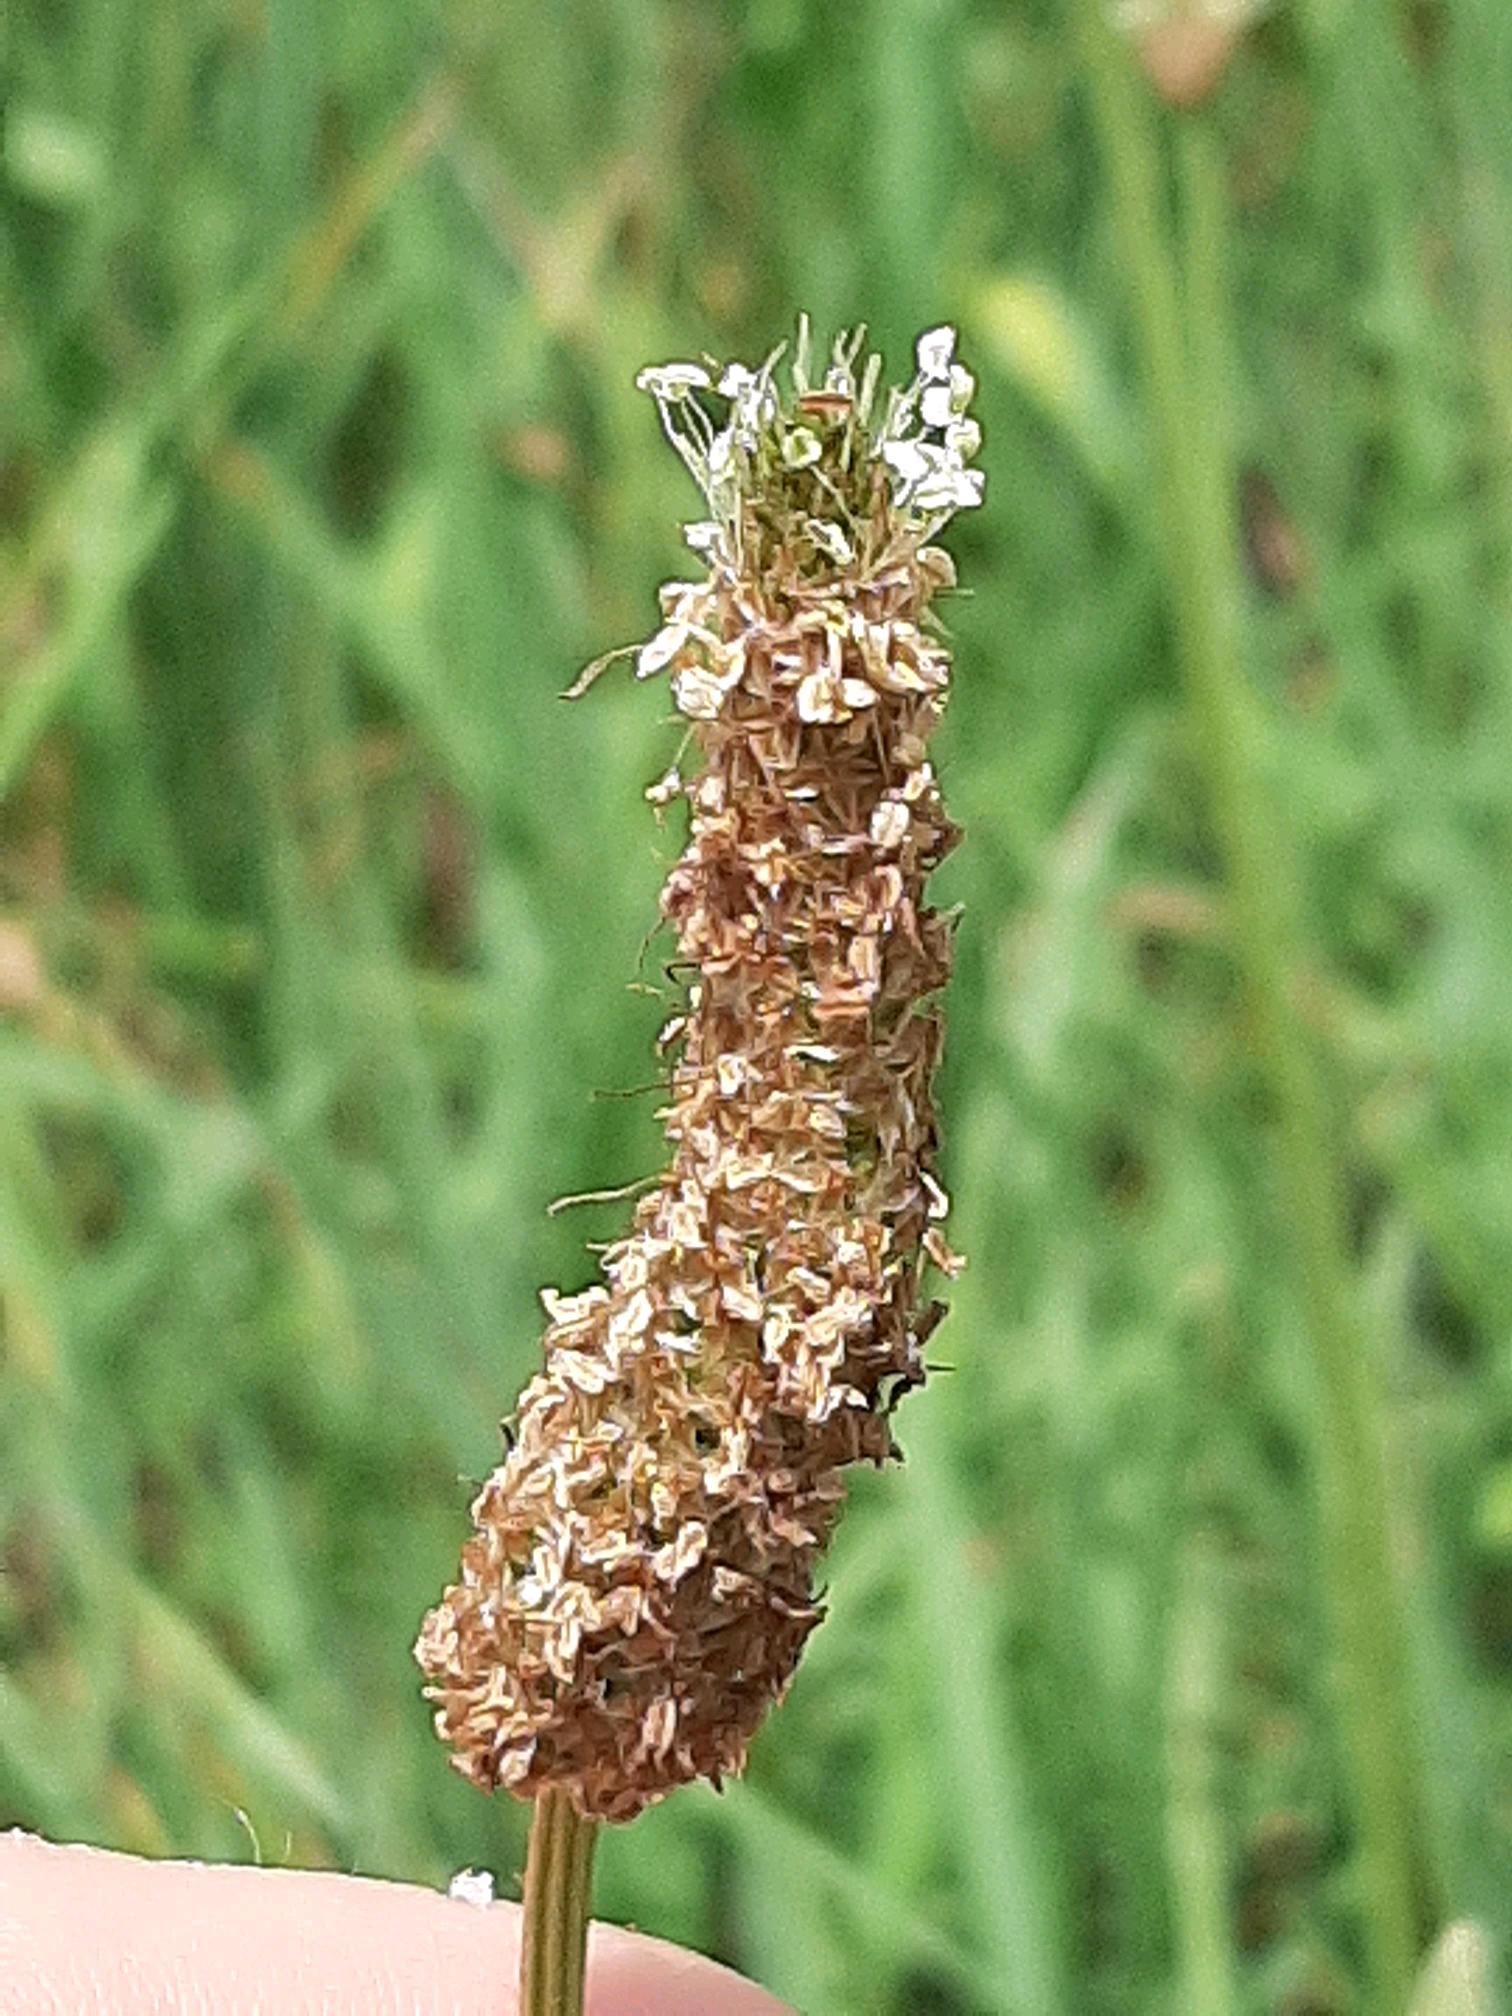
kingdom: Plantae
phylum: Tracheophyta
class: Magnoliopsida
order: Lamiales
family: Plantaginaceae
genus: Plantago
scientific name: Plantago lanceolata
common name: Ribwort plantain
